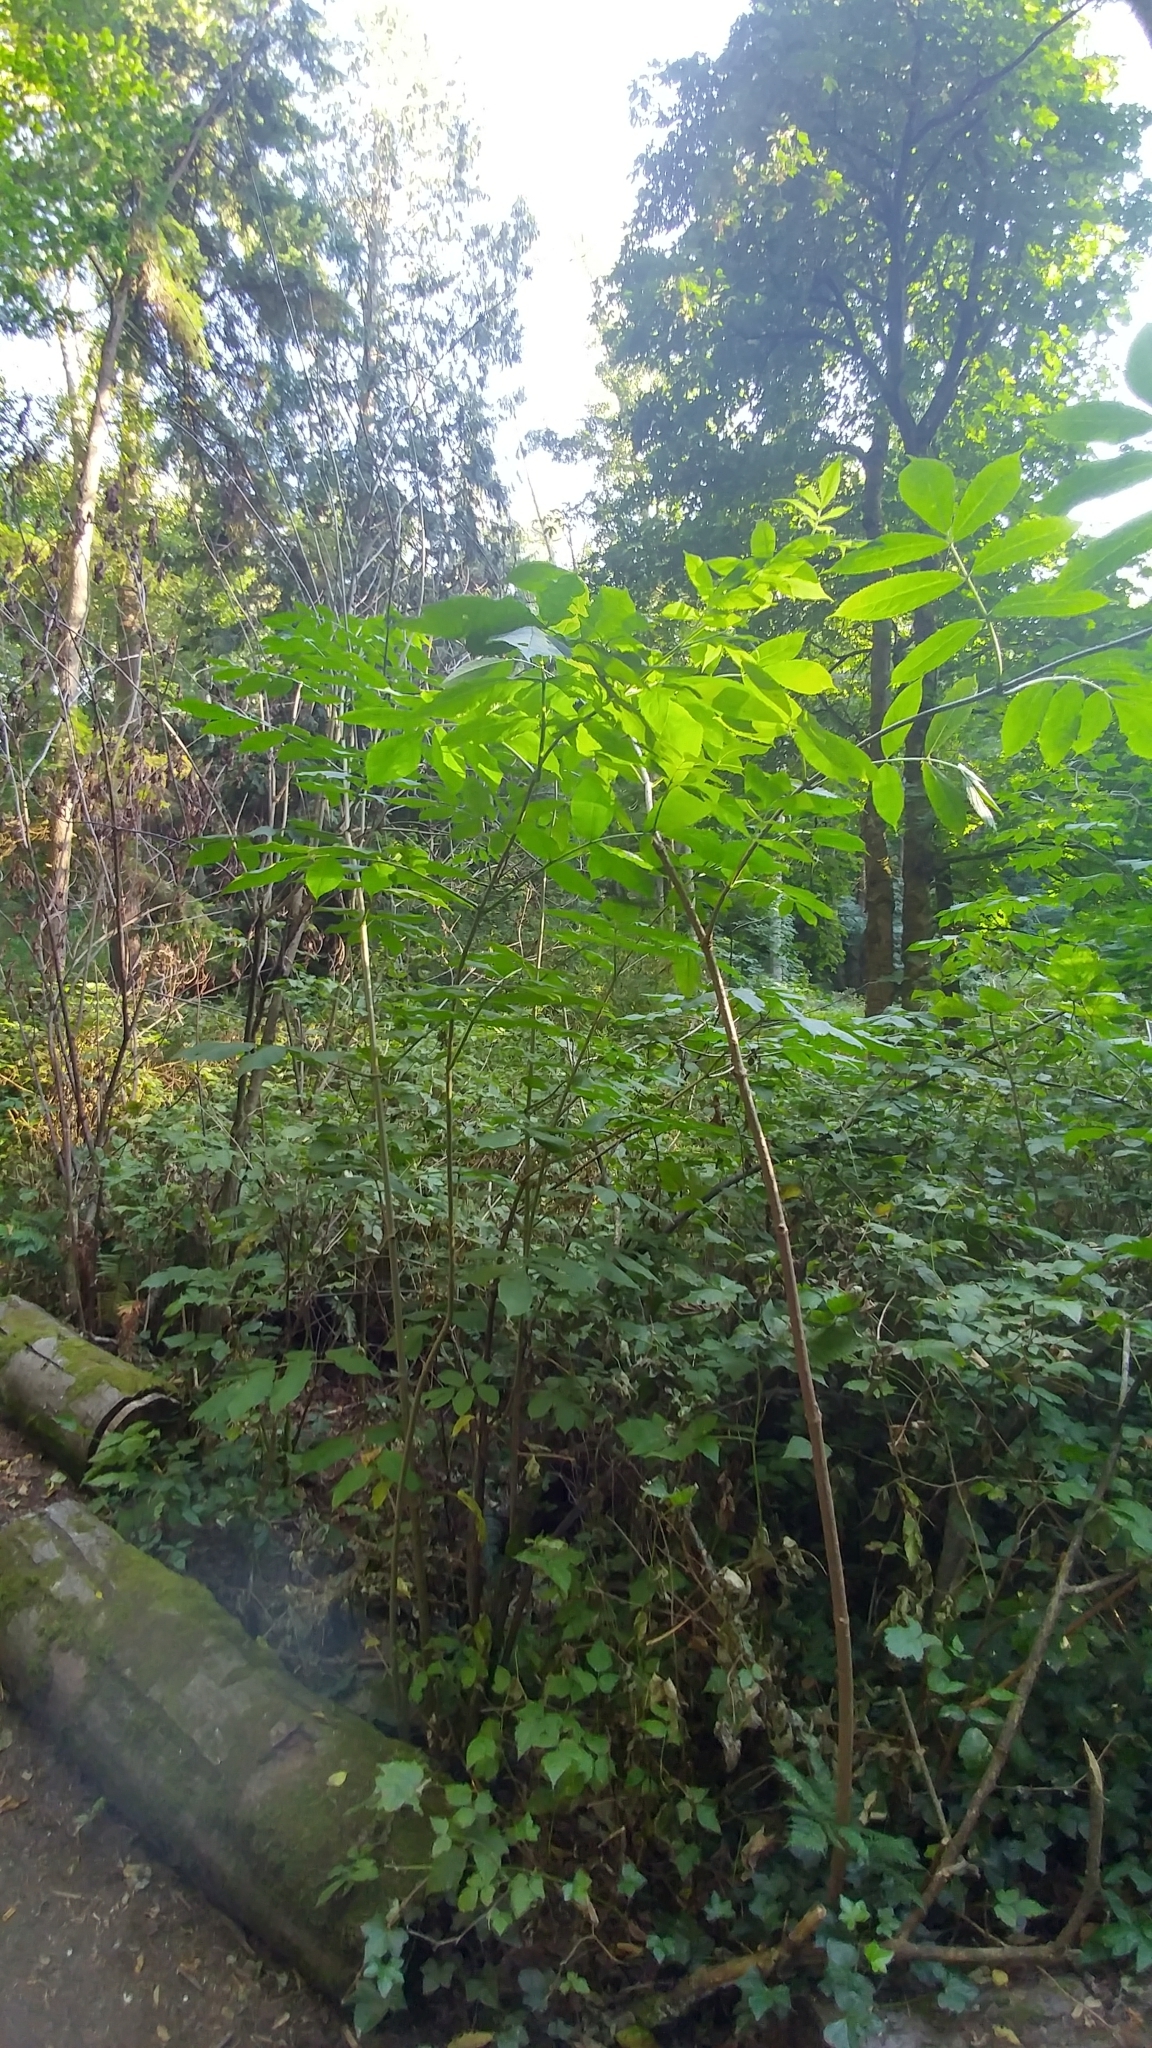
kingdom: Plantae
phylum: Tracheophyta
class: Magnoliopsida
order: Dipsacales
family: Viburnaceae
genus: Sambucus
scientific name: Sambucus racemosa
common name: Red-berried elder
